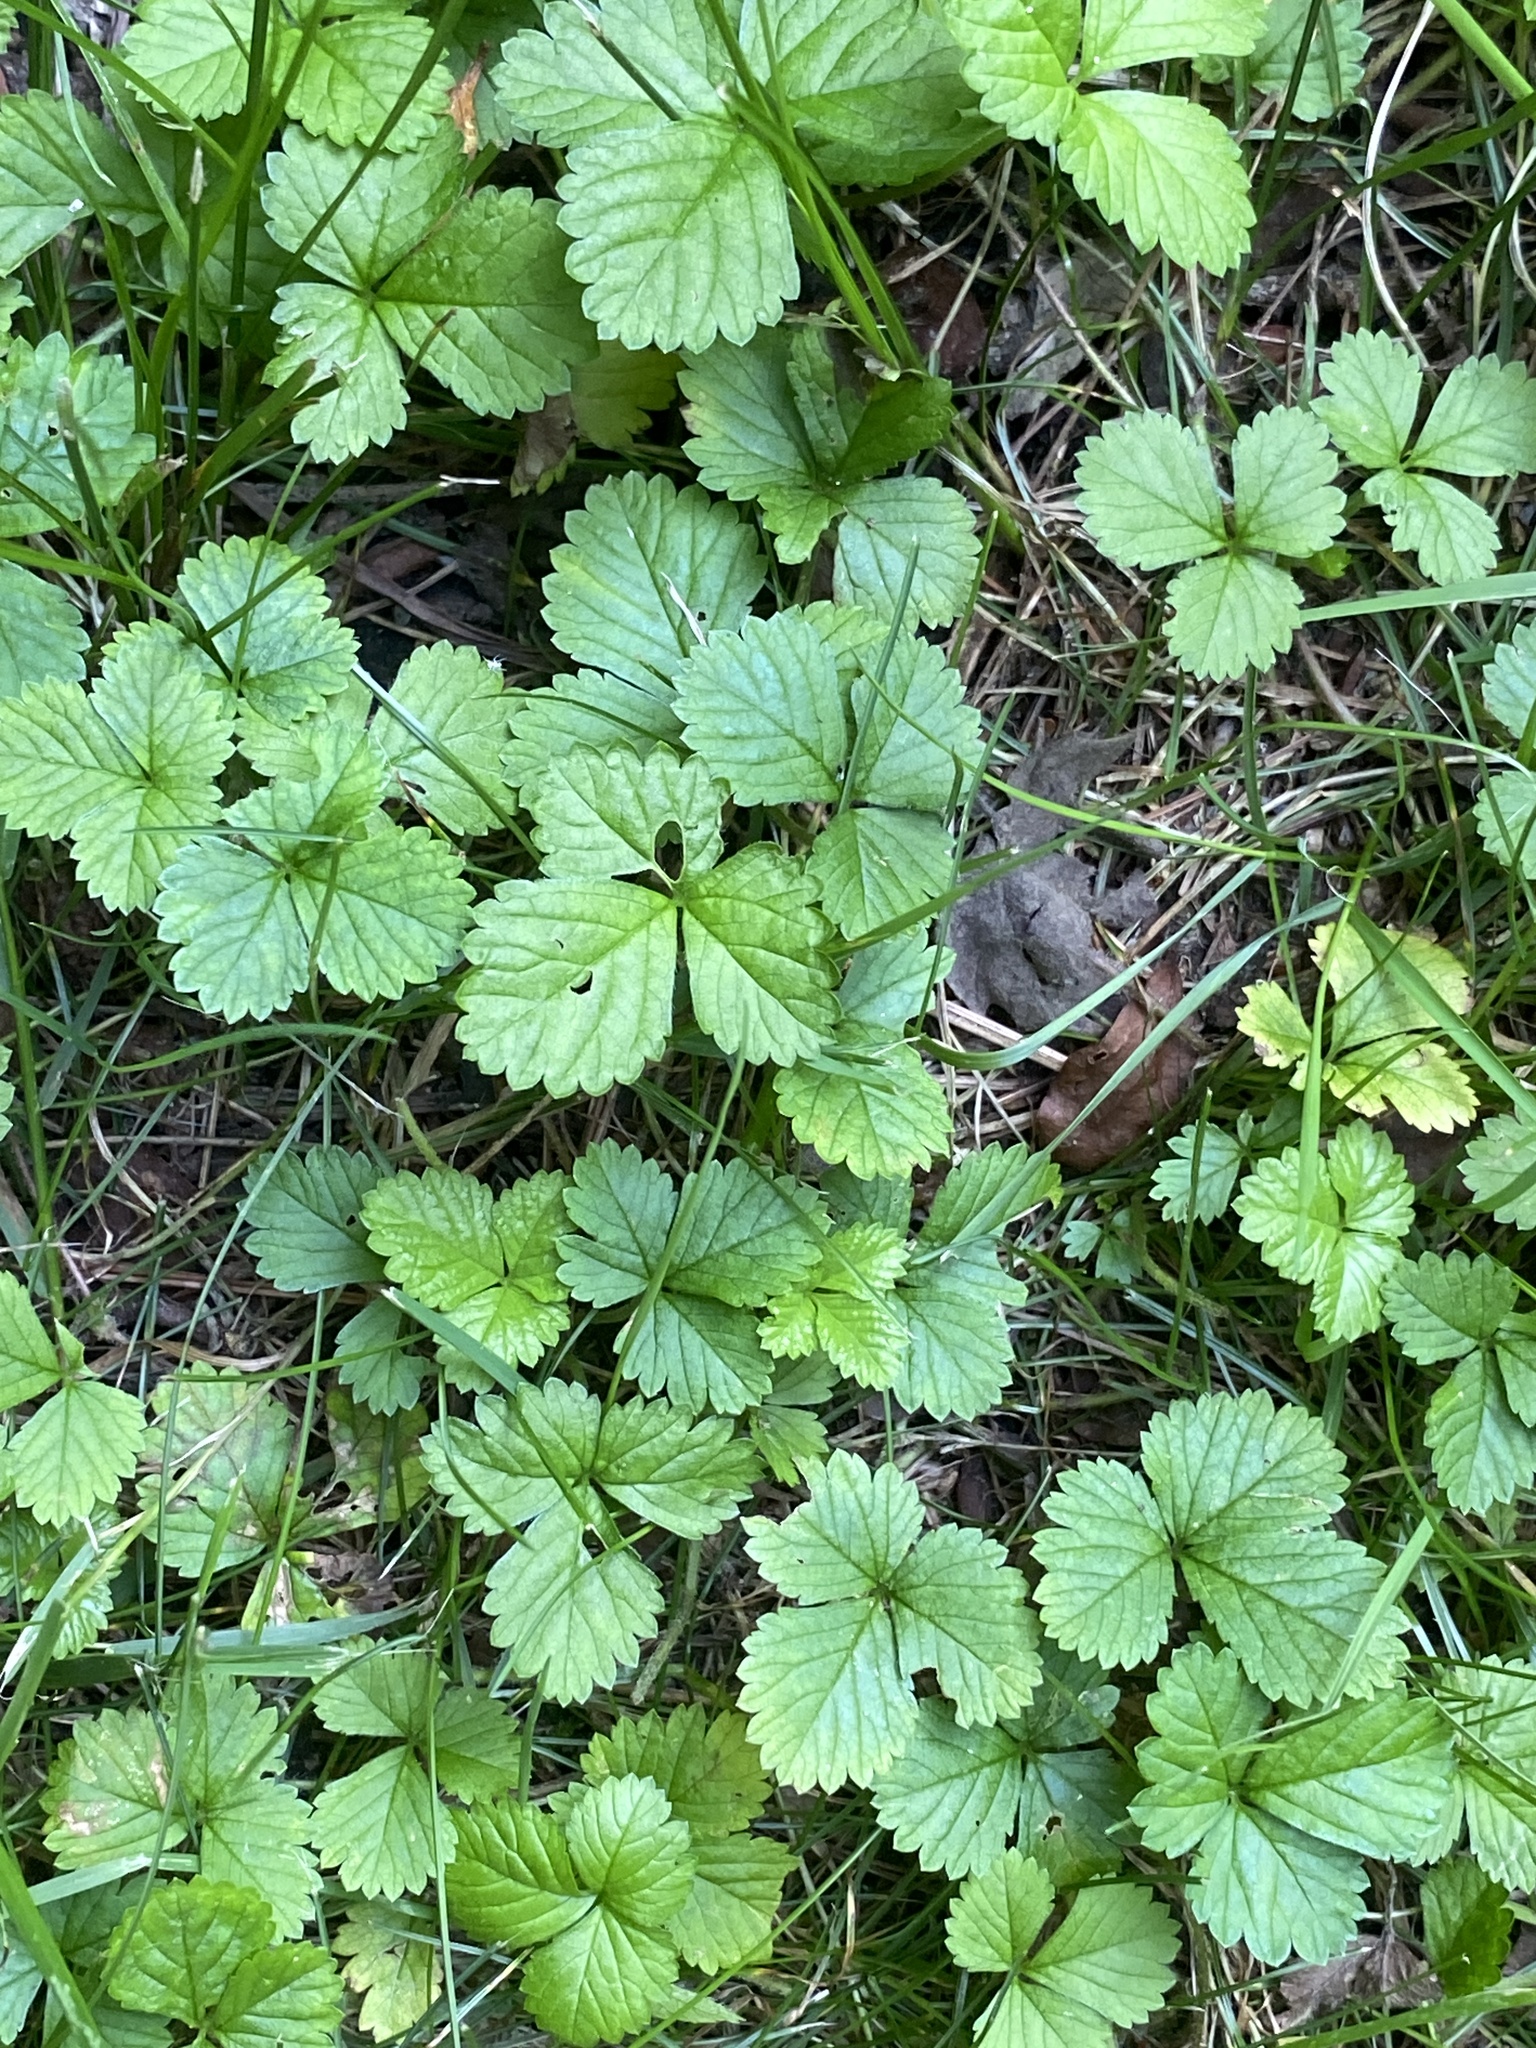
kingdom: Plantae
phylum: Tracheophyta
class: Magnoliopsida
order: Rosales
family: Rosaceae
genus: Potentilla
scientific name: Potentilla indica
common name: Yellow-flowered strawberry
